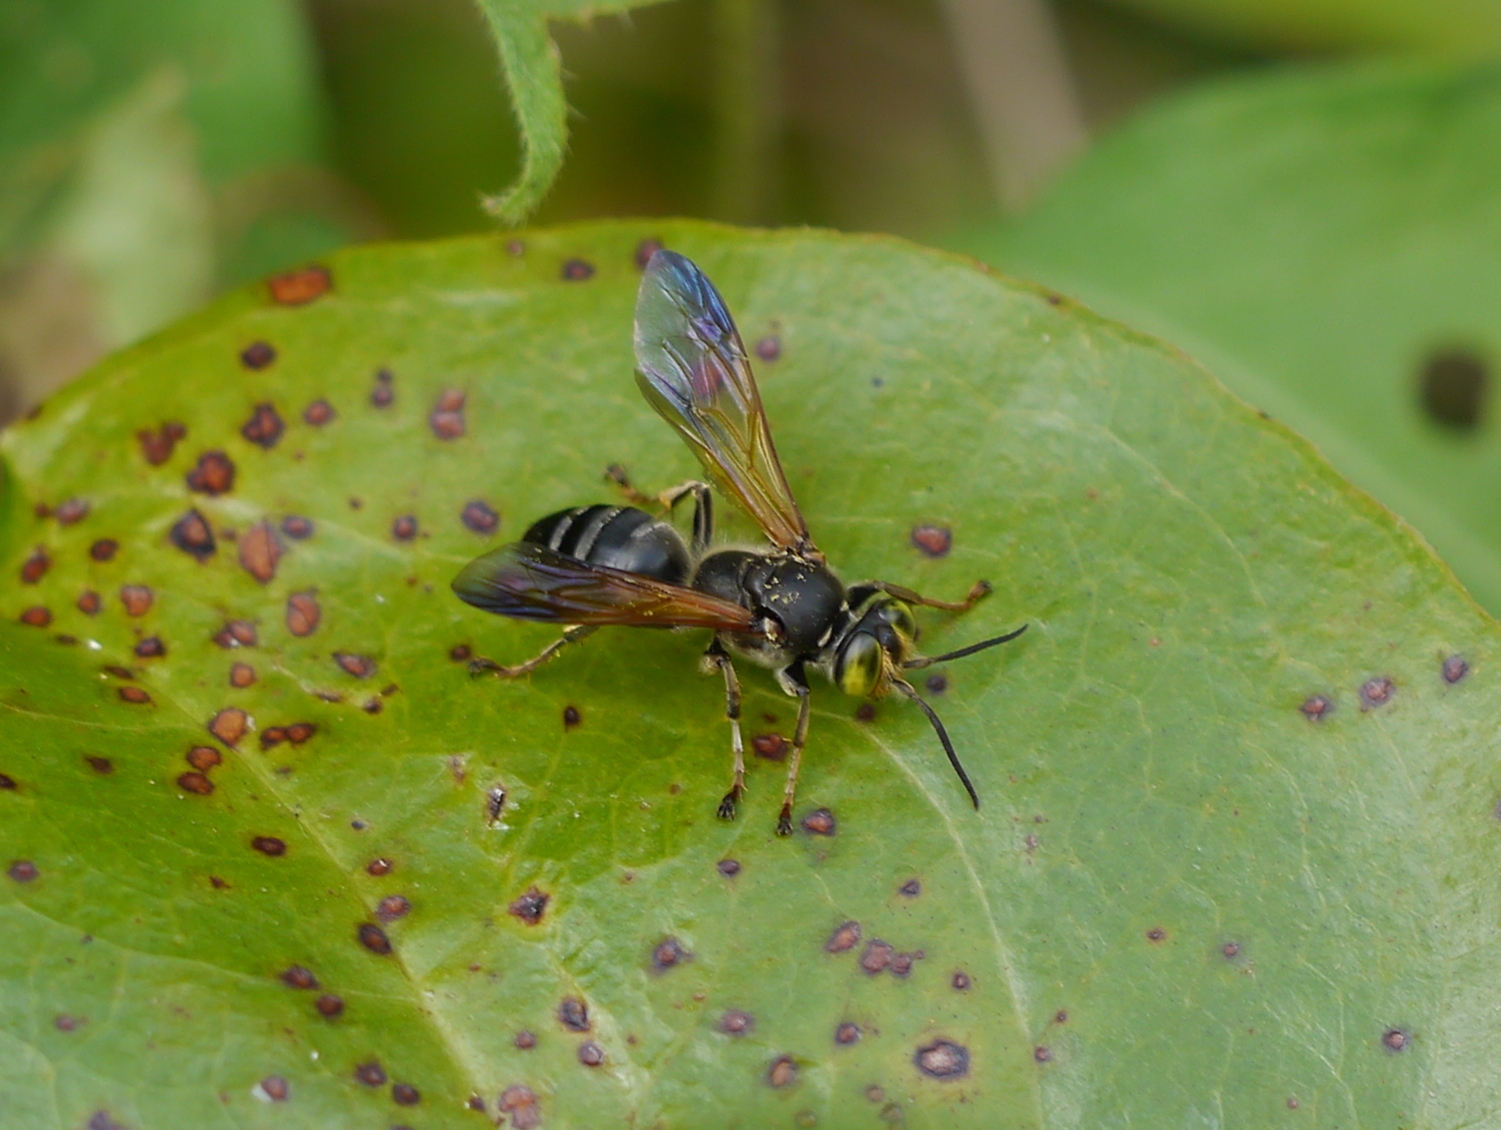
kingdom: Animalia
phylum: Arthropoda
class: Insecta
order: Hymenoptera
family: Crabronidae
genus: Tachytes
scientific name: Tachytes guatemalensis
